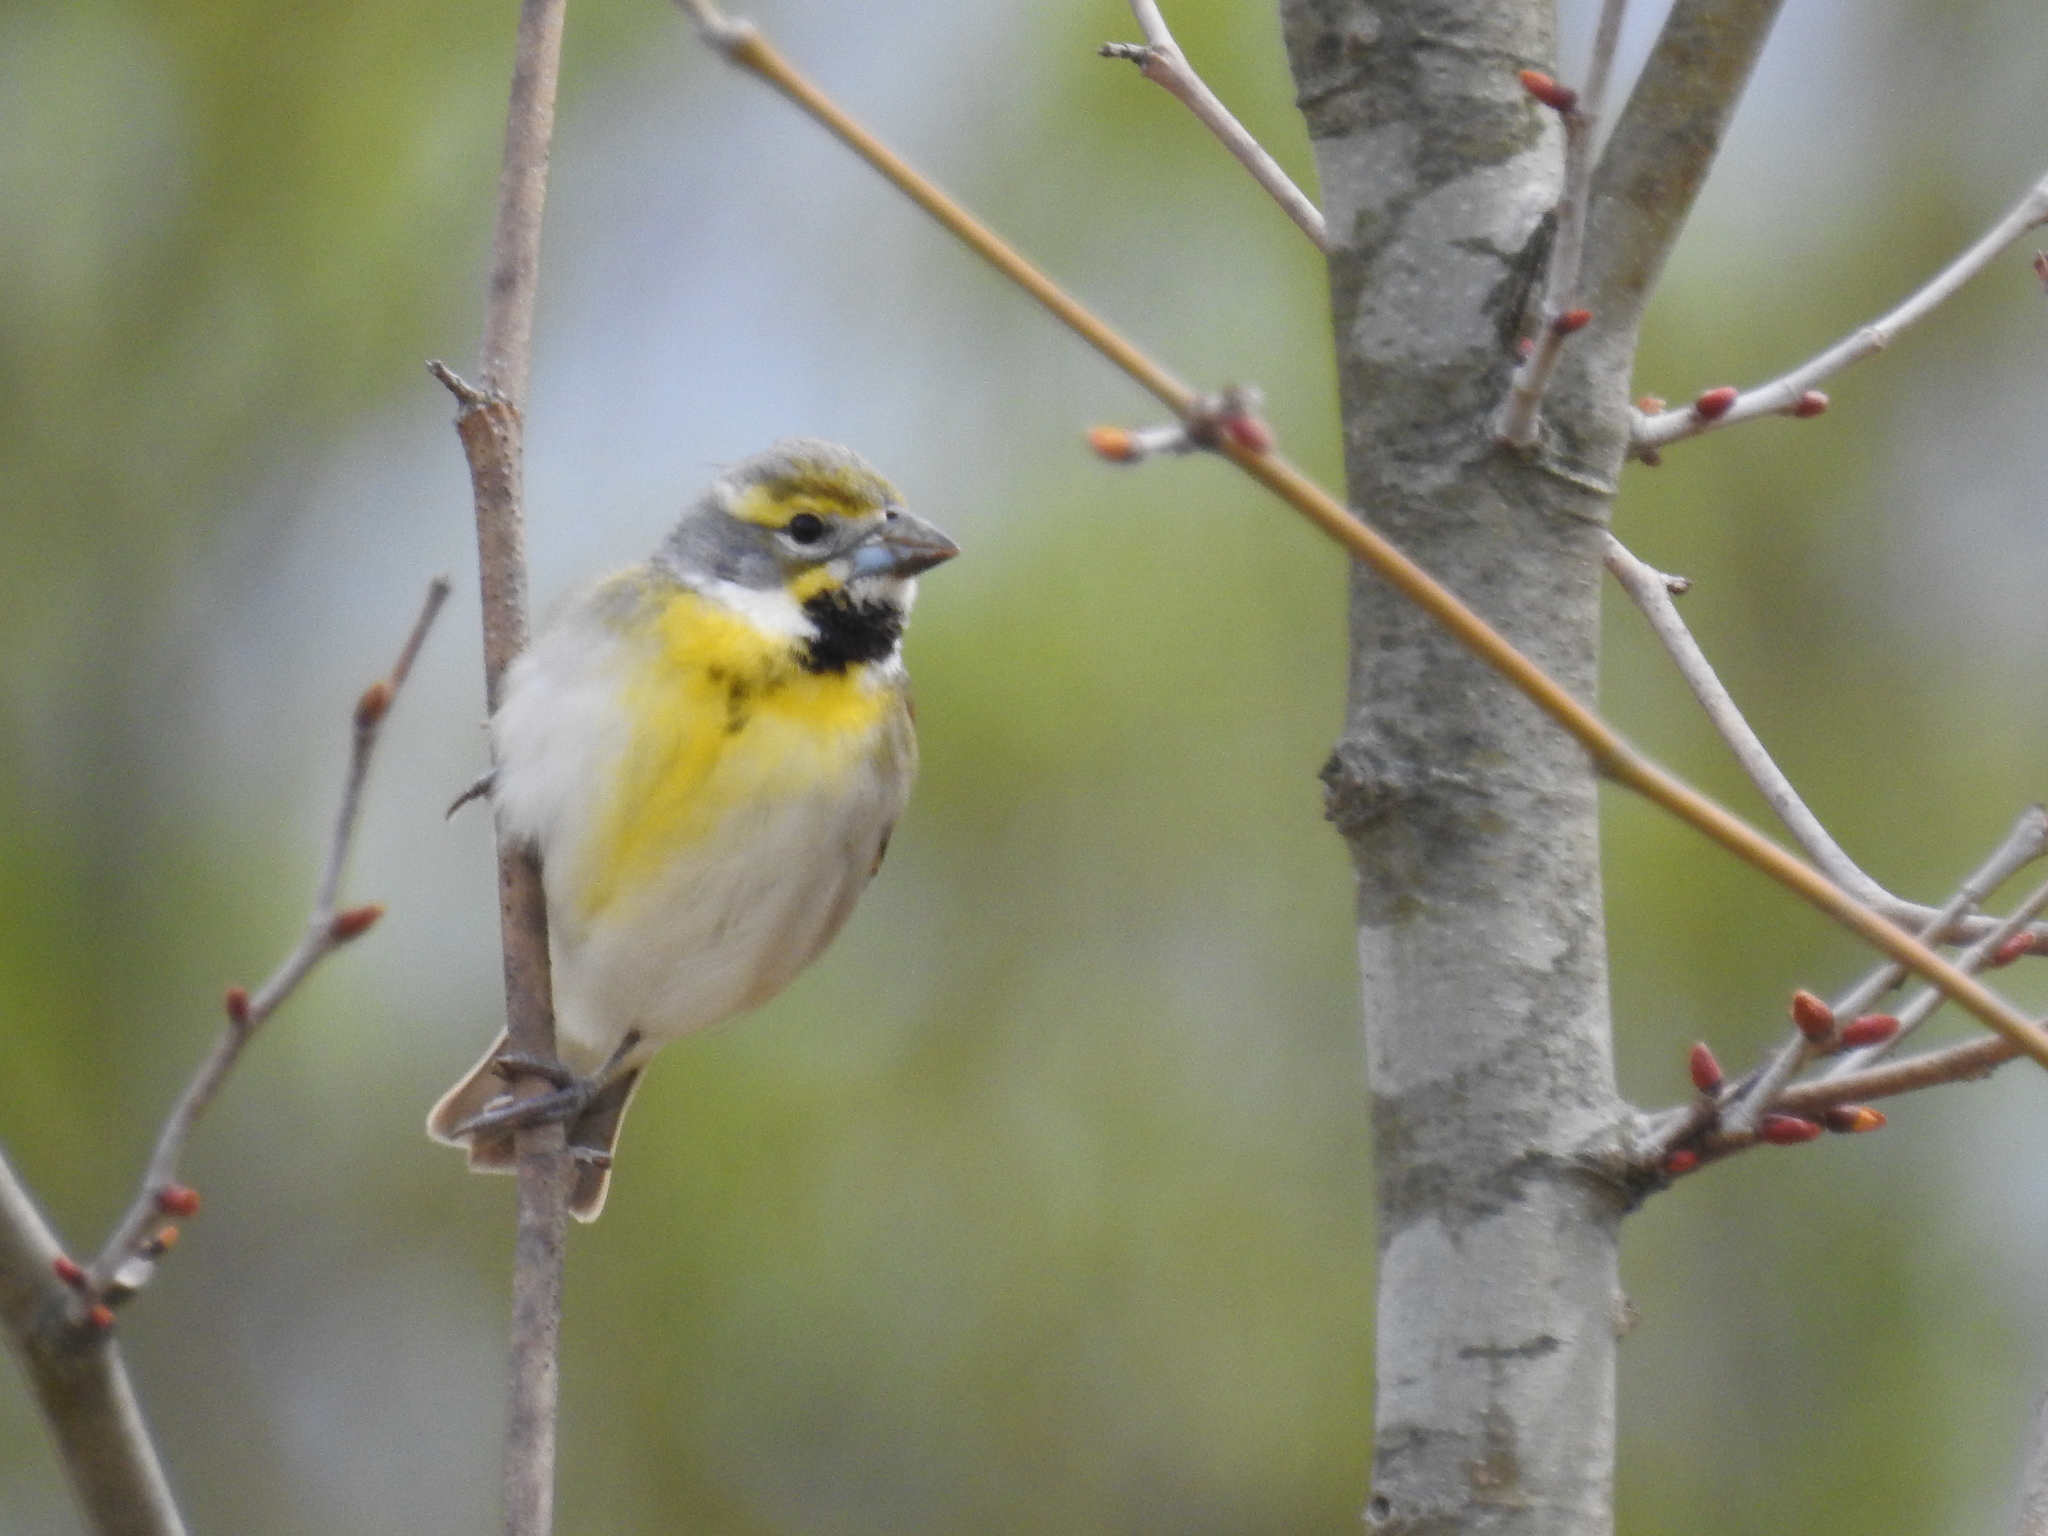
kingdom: Animalia
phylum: Chordata
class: Aves
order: Passeriformes
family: Cardinalidae
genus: Spiza
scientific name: Spiza americana
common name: Dickcissel
